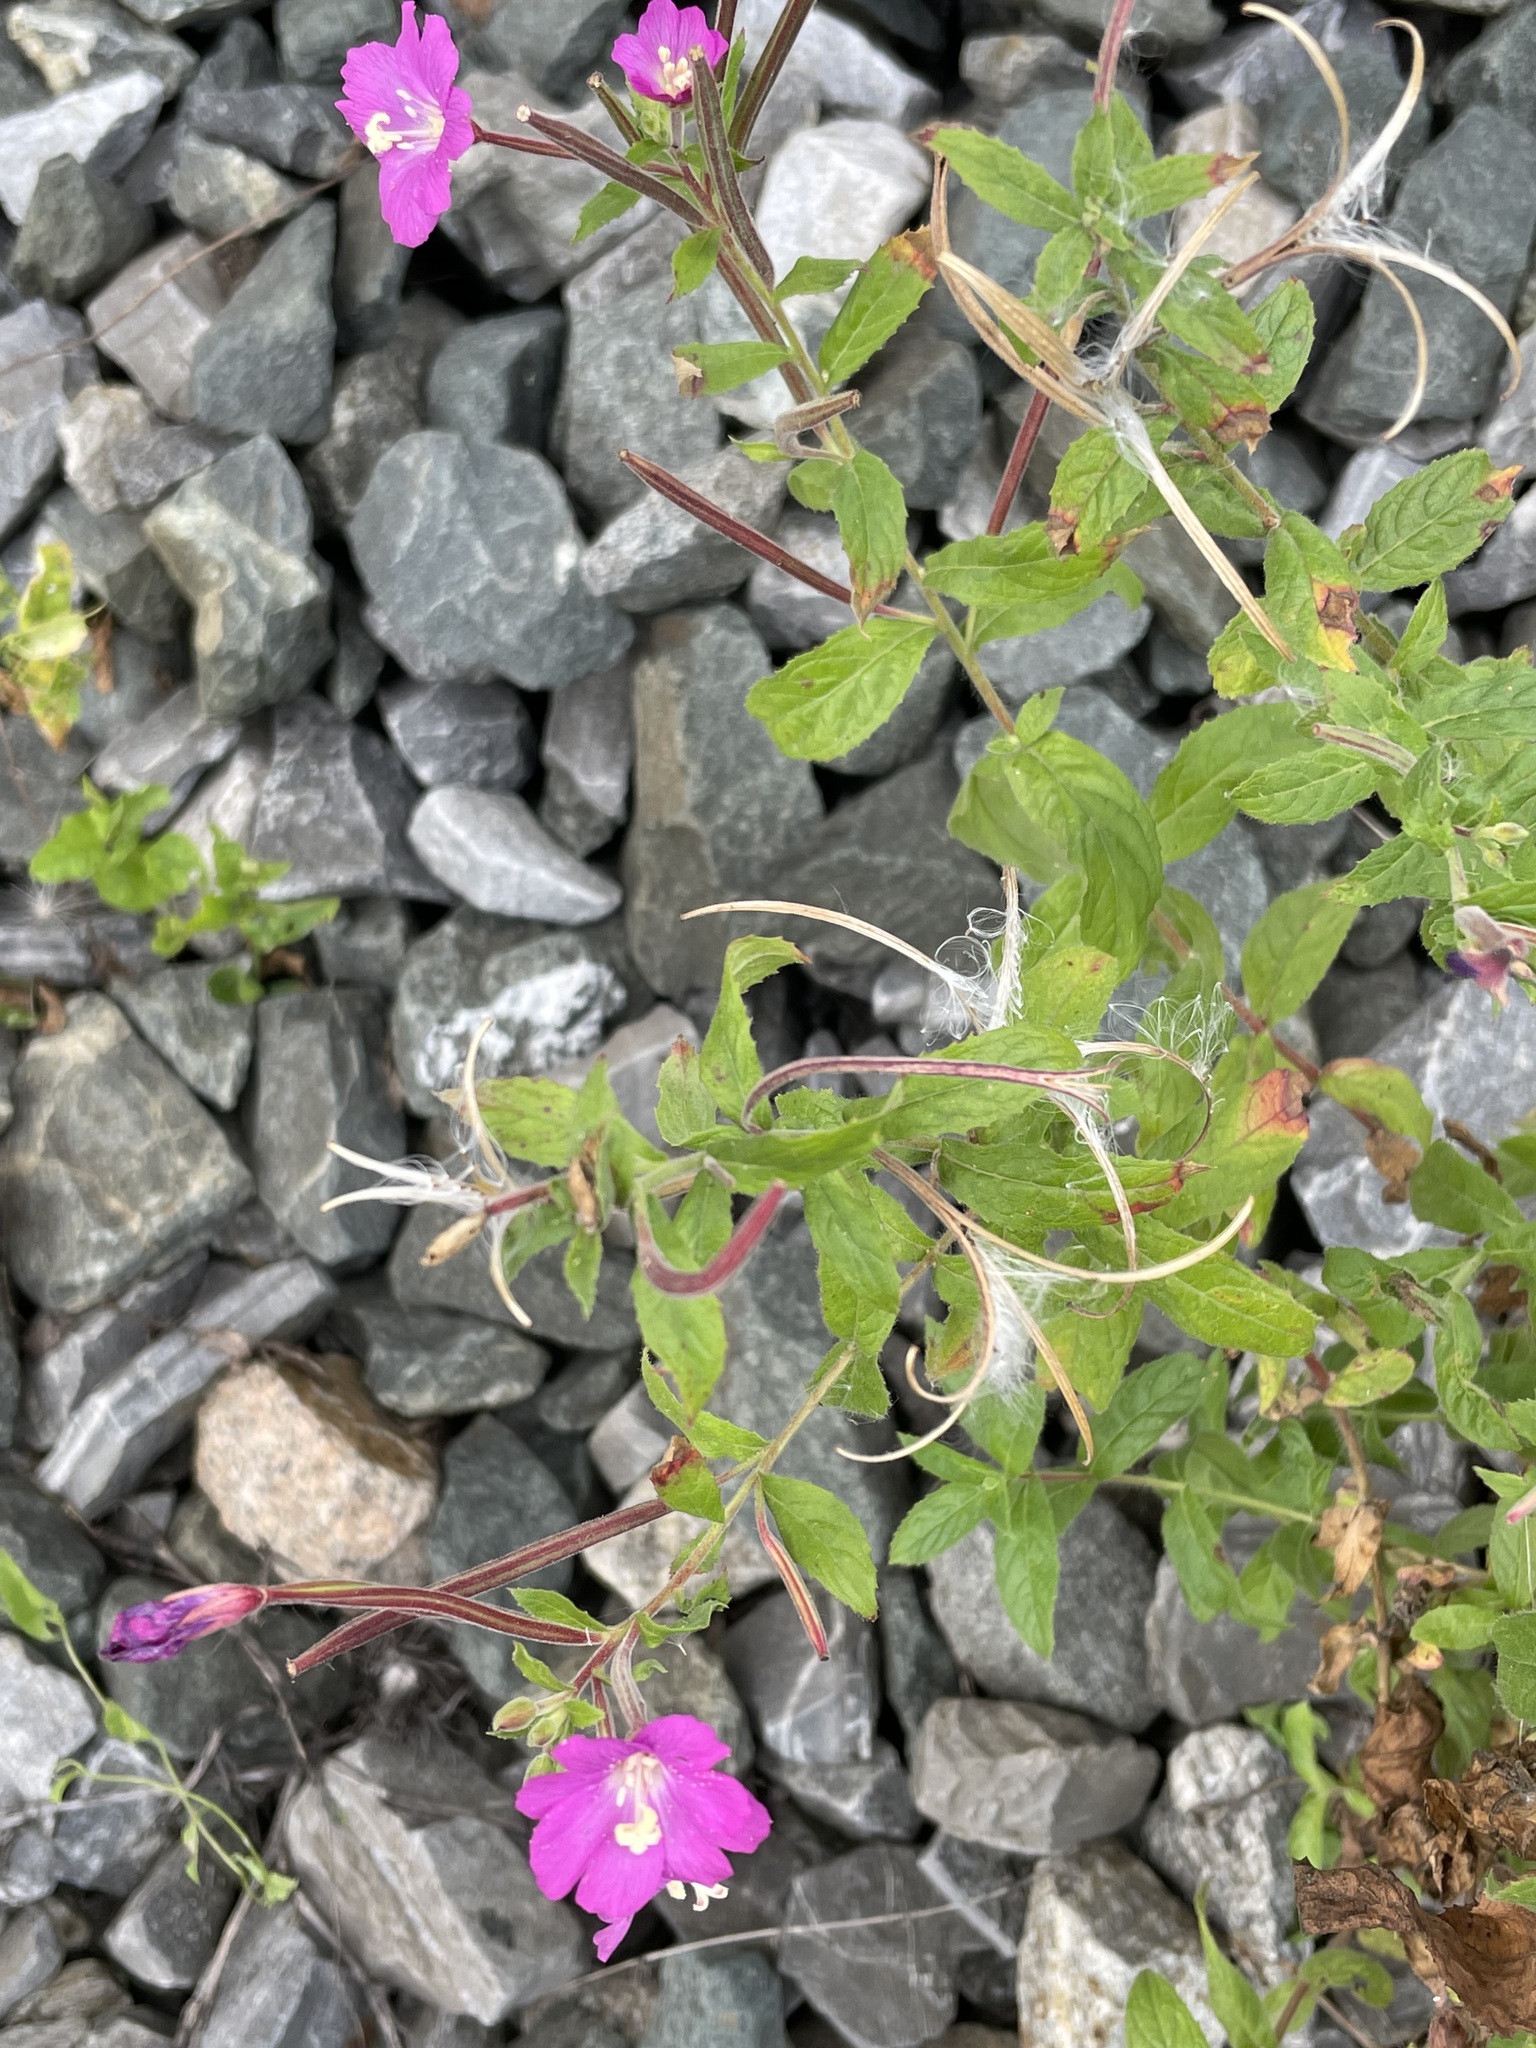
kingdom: Plantae
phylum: Tracheophyta
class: Magnoliopsida
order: Myrtales
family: Onagraceae
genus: Epilobium
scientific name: Epilobium hirsutum
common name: Great willowherb
